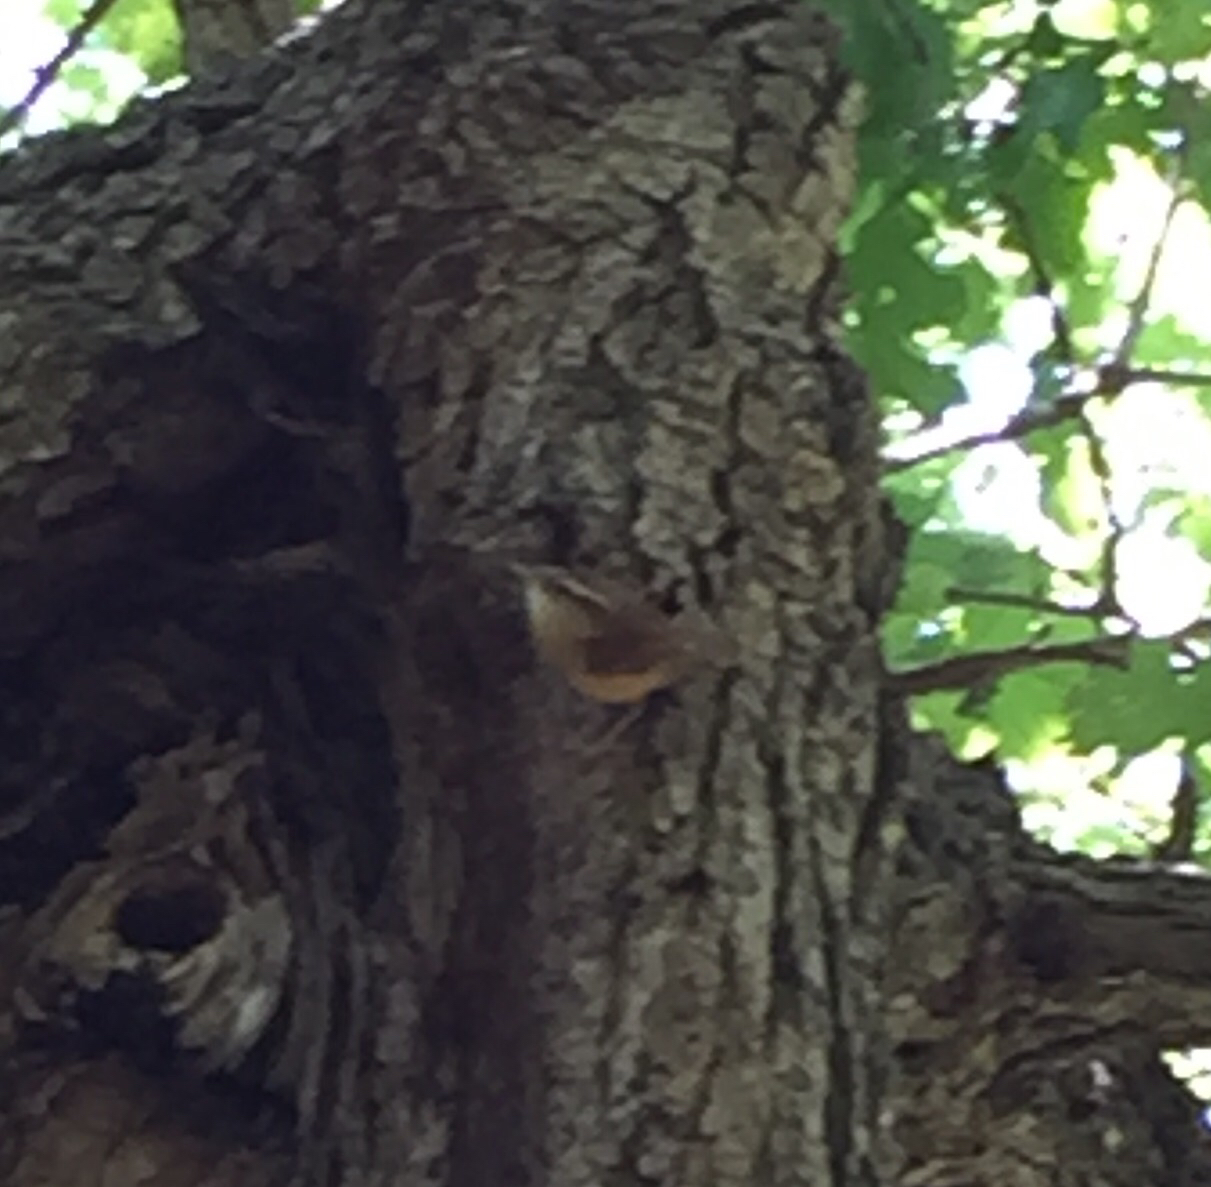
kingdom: Animalia
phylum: Chordata
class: Aves
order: Passeriformes
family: Troglodytidae
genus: Thryothorus
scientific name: Thryothorus ludovicianus
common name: Carolina wren
